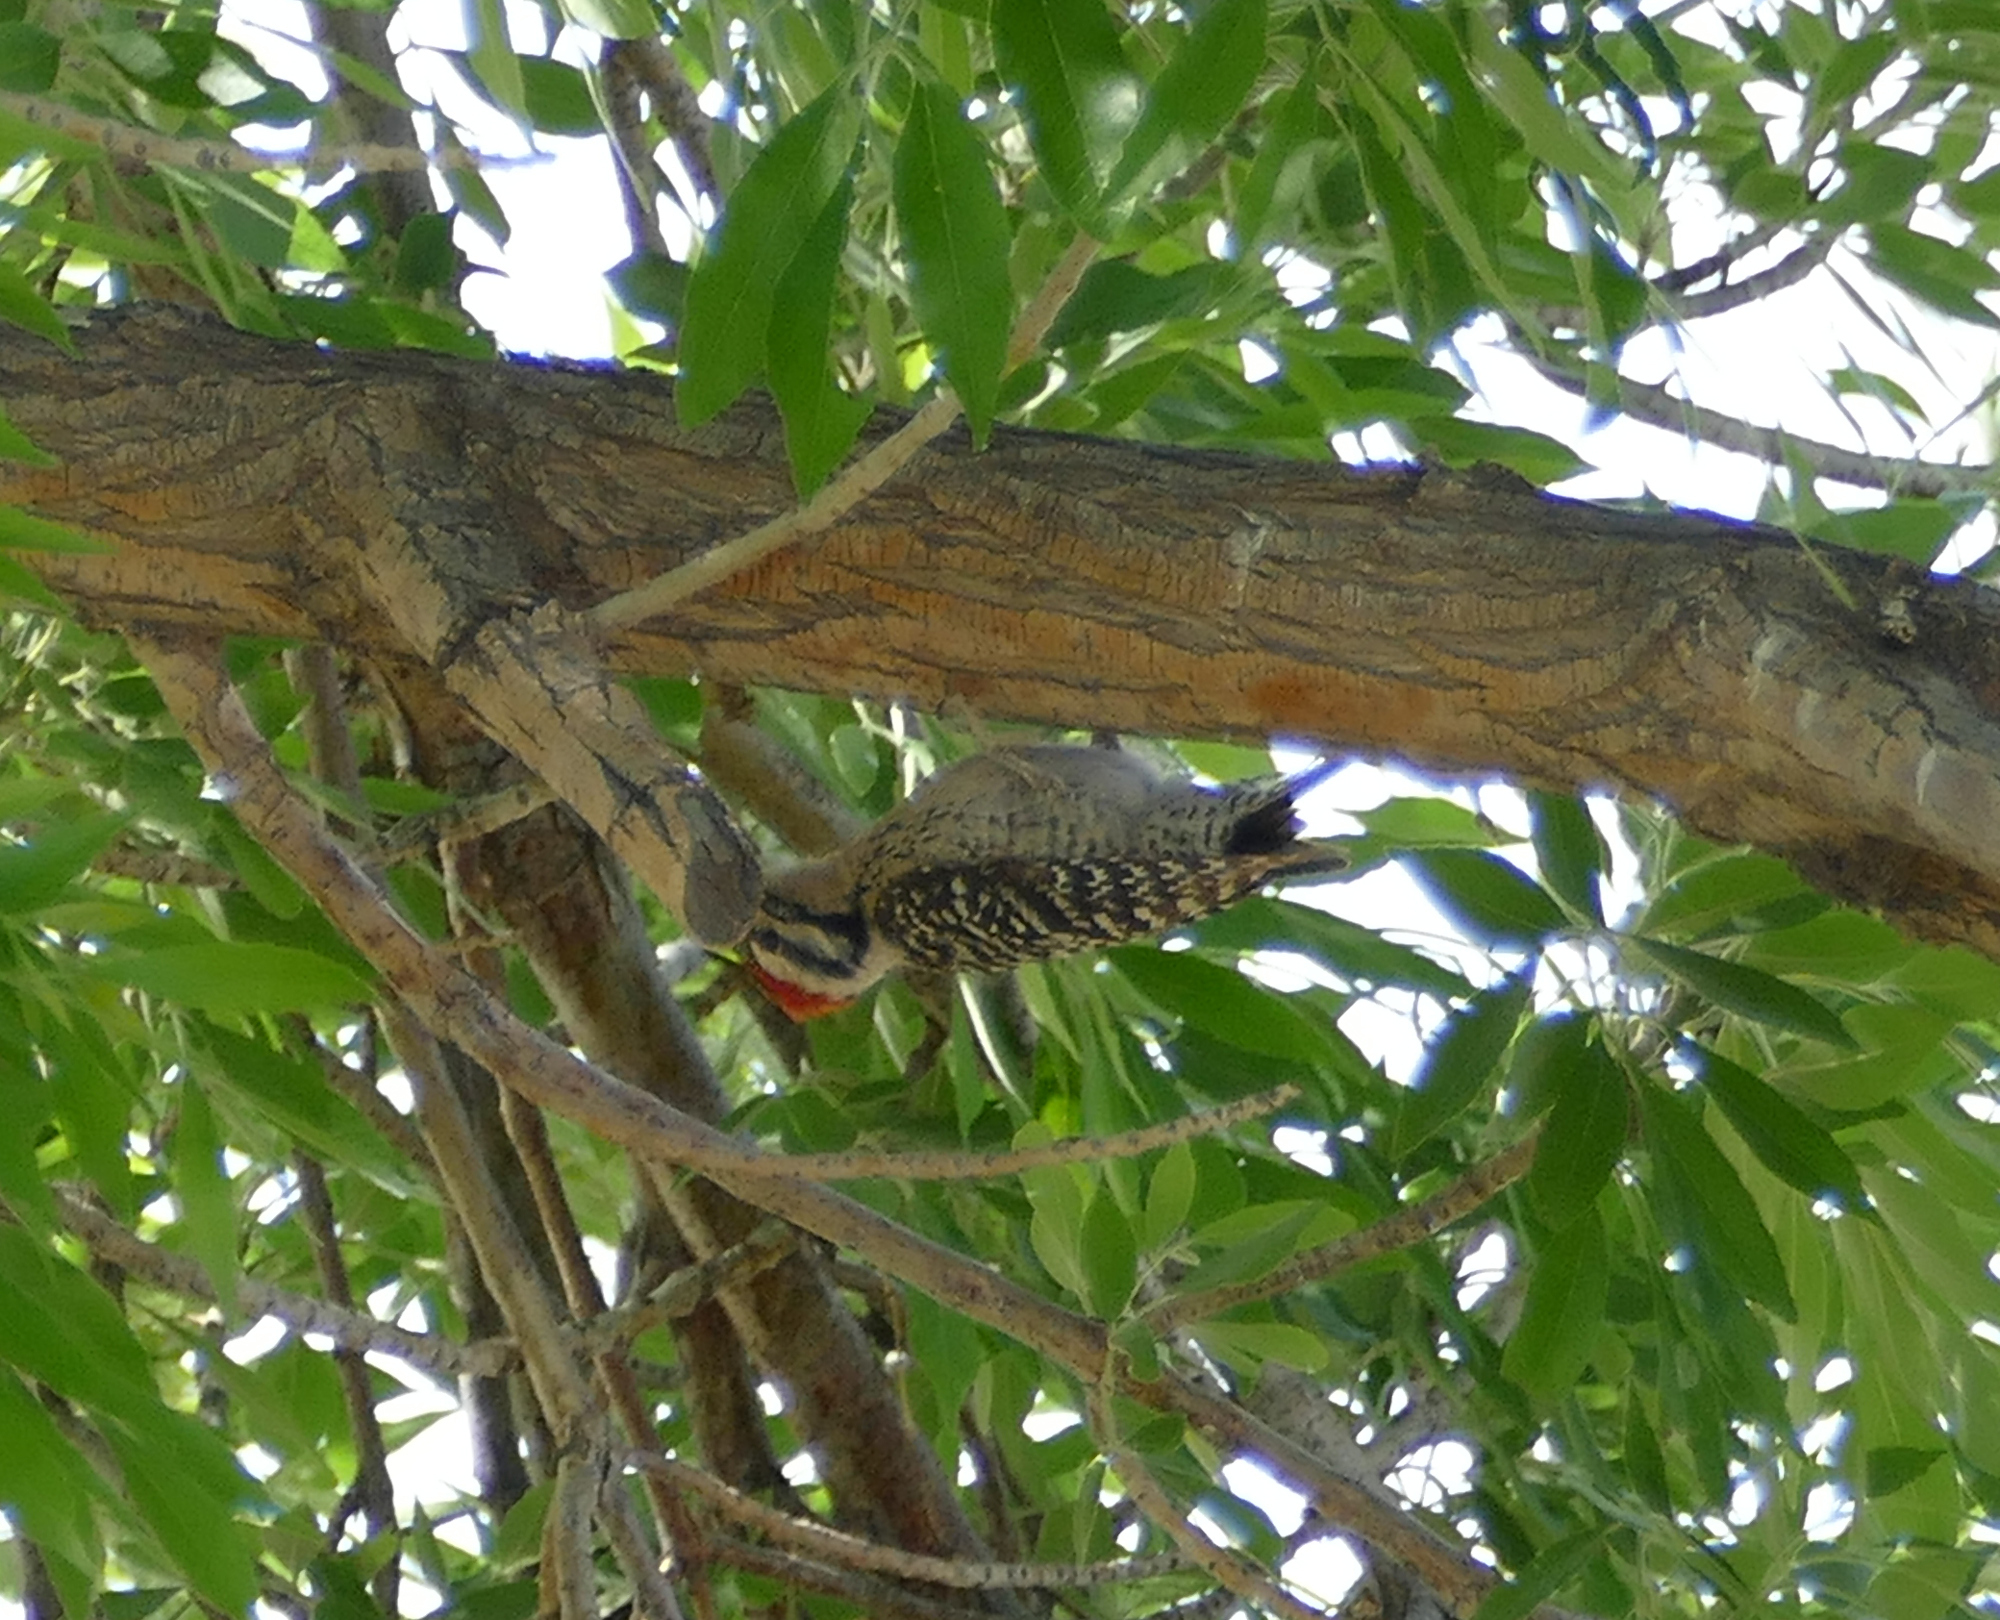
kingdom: Animalia
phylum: Chordata
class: Aves
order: Piciformes
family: Picidae
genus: Dryobates
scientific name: Dryobates scalaris
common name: Ladder-backed woodpecker
